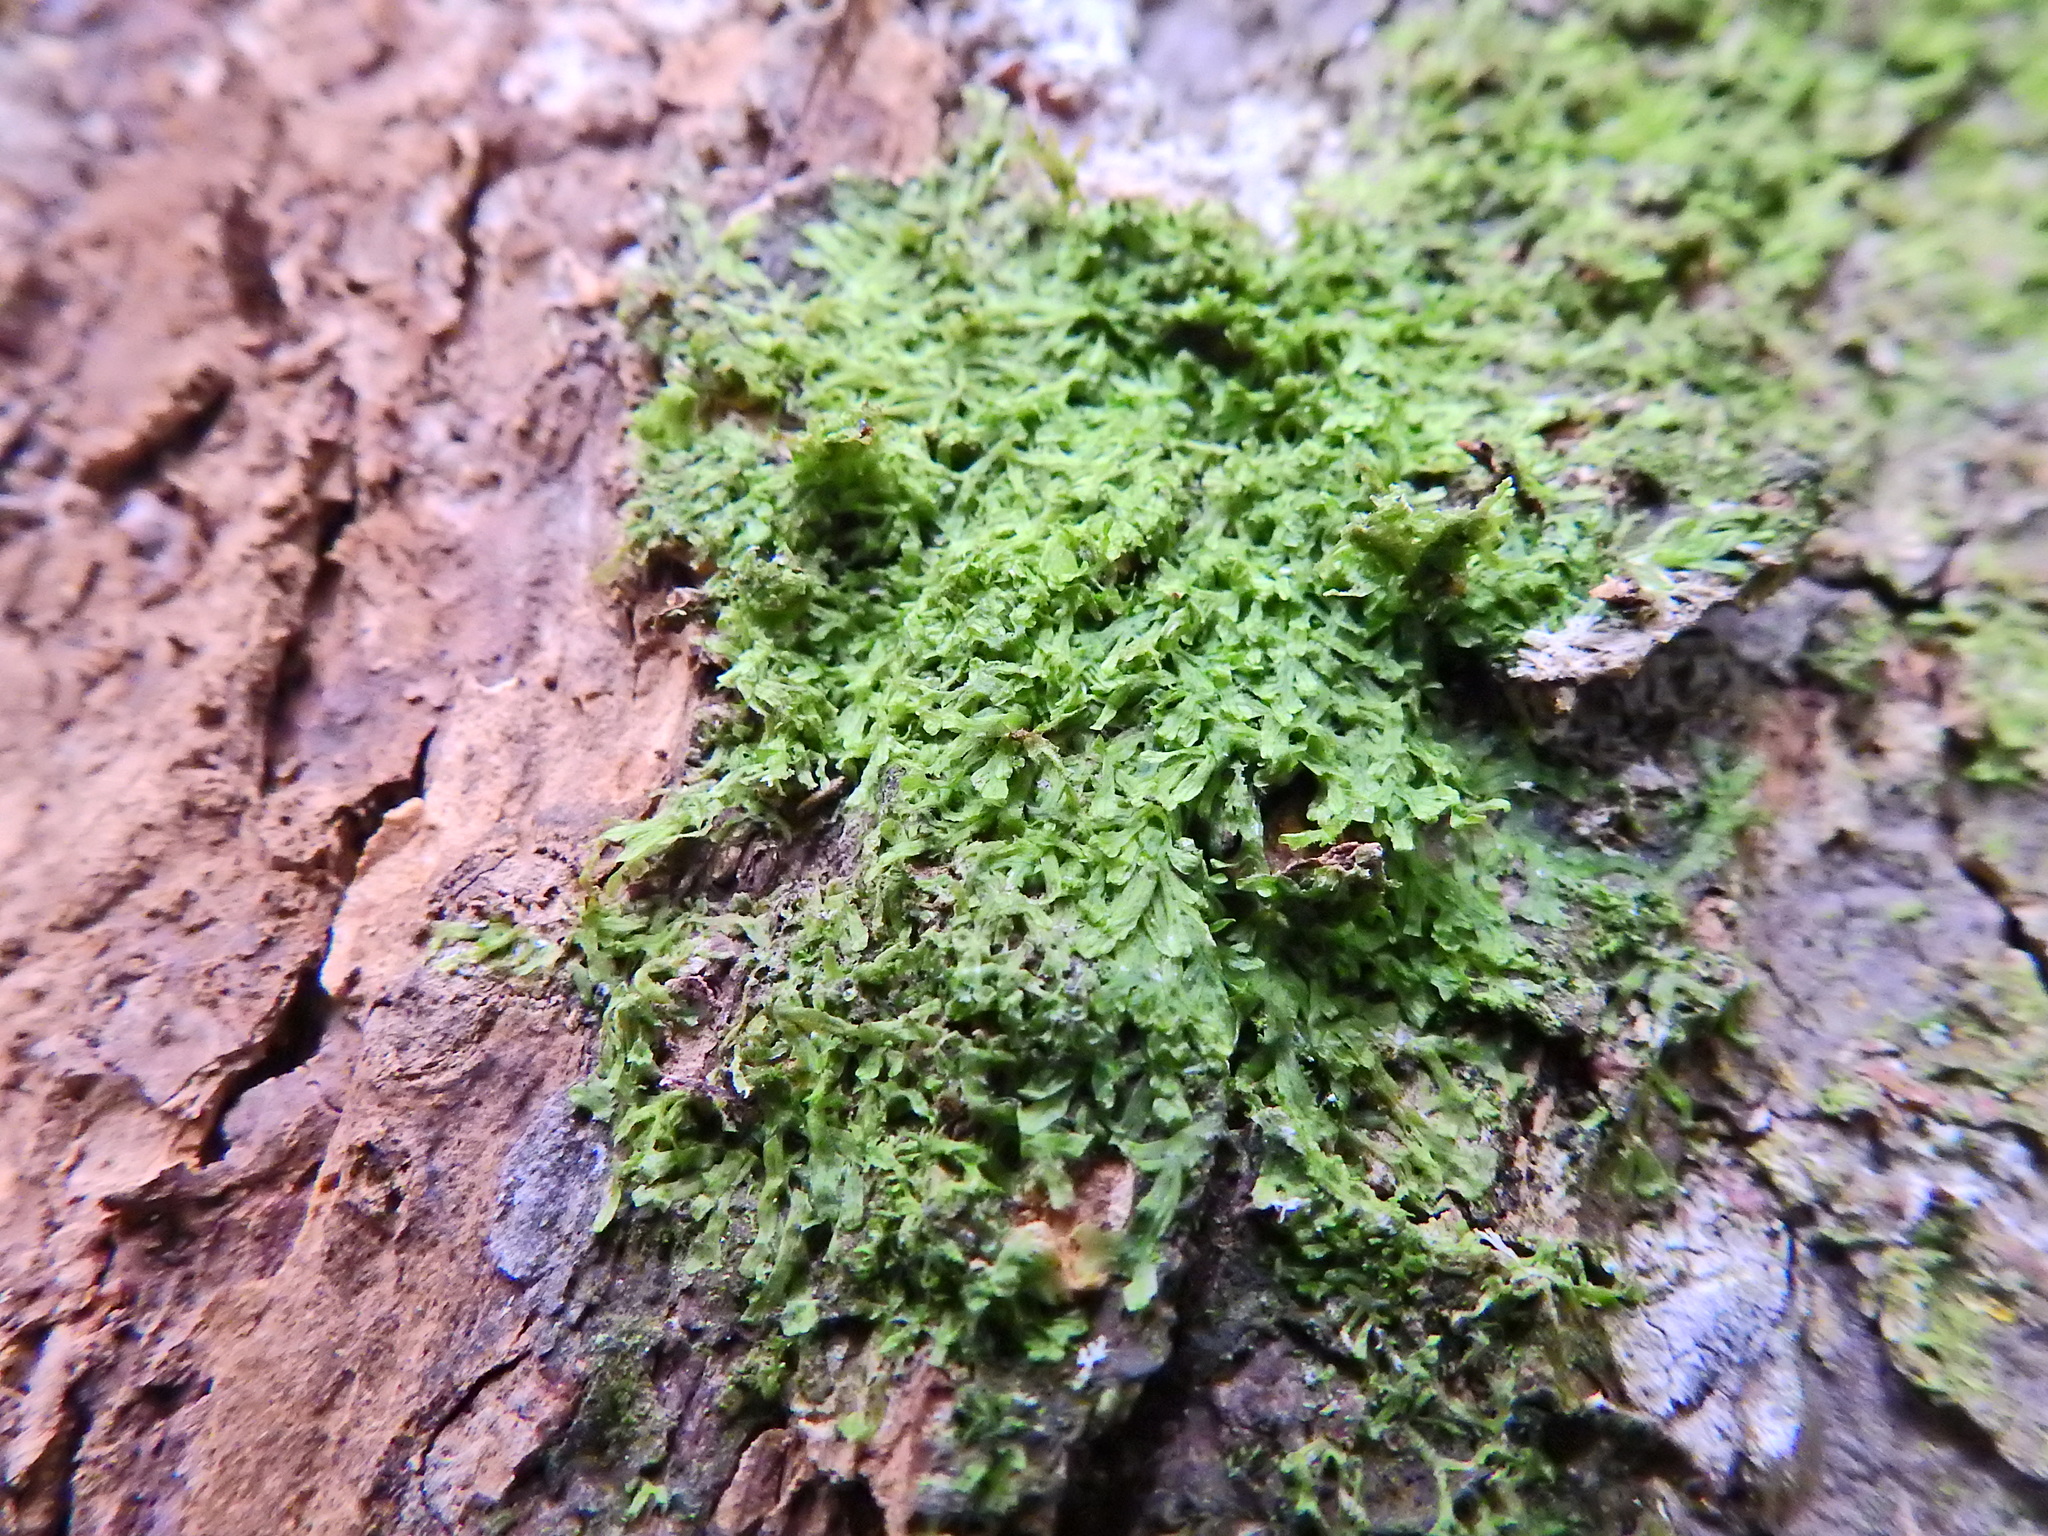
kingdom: Plantae
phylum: Marchantiophyta
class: Jungermanniopsida
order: Metzgeriales
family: Metzgeriaceae
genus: Metzgeria
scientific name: Metzgeria furcata
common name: Forked veilwort
